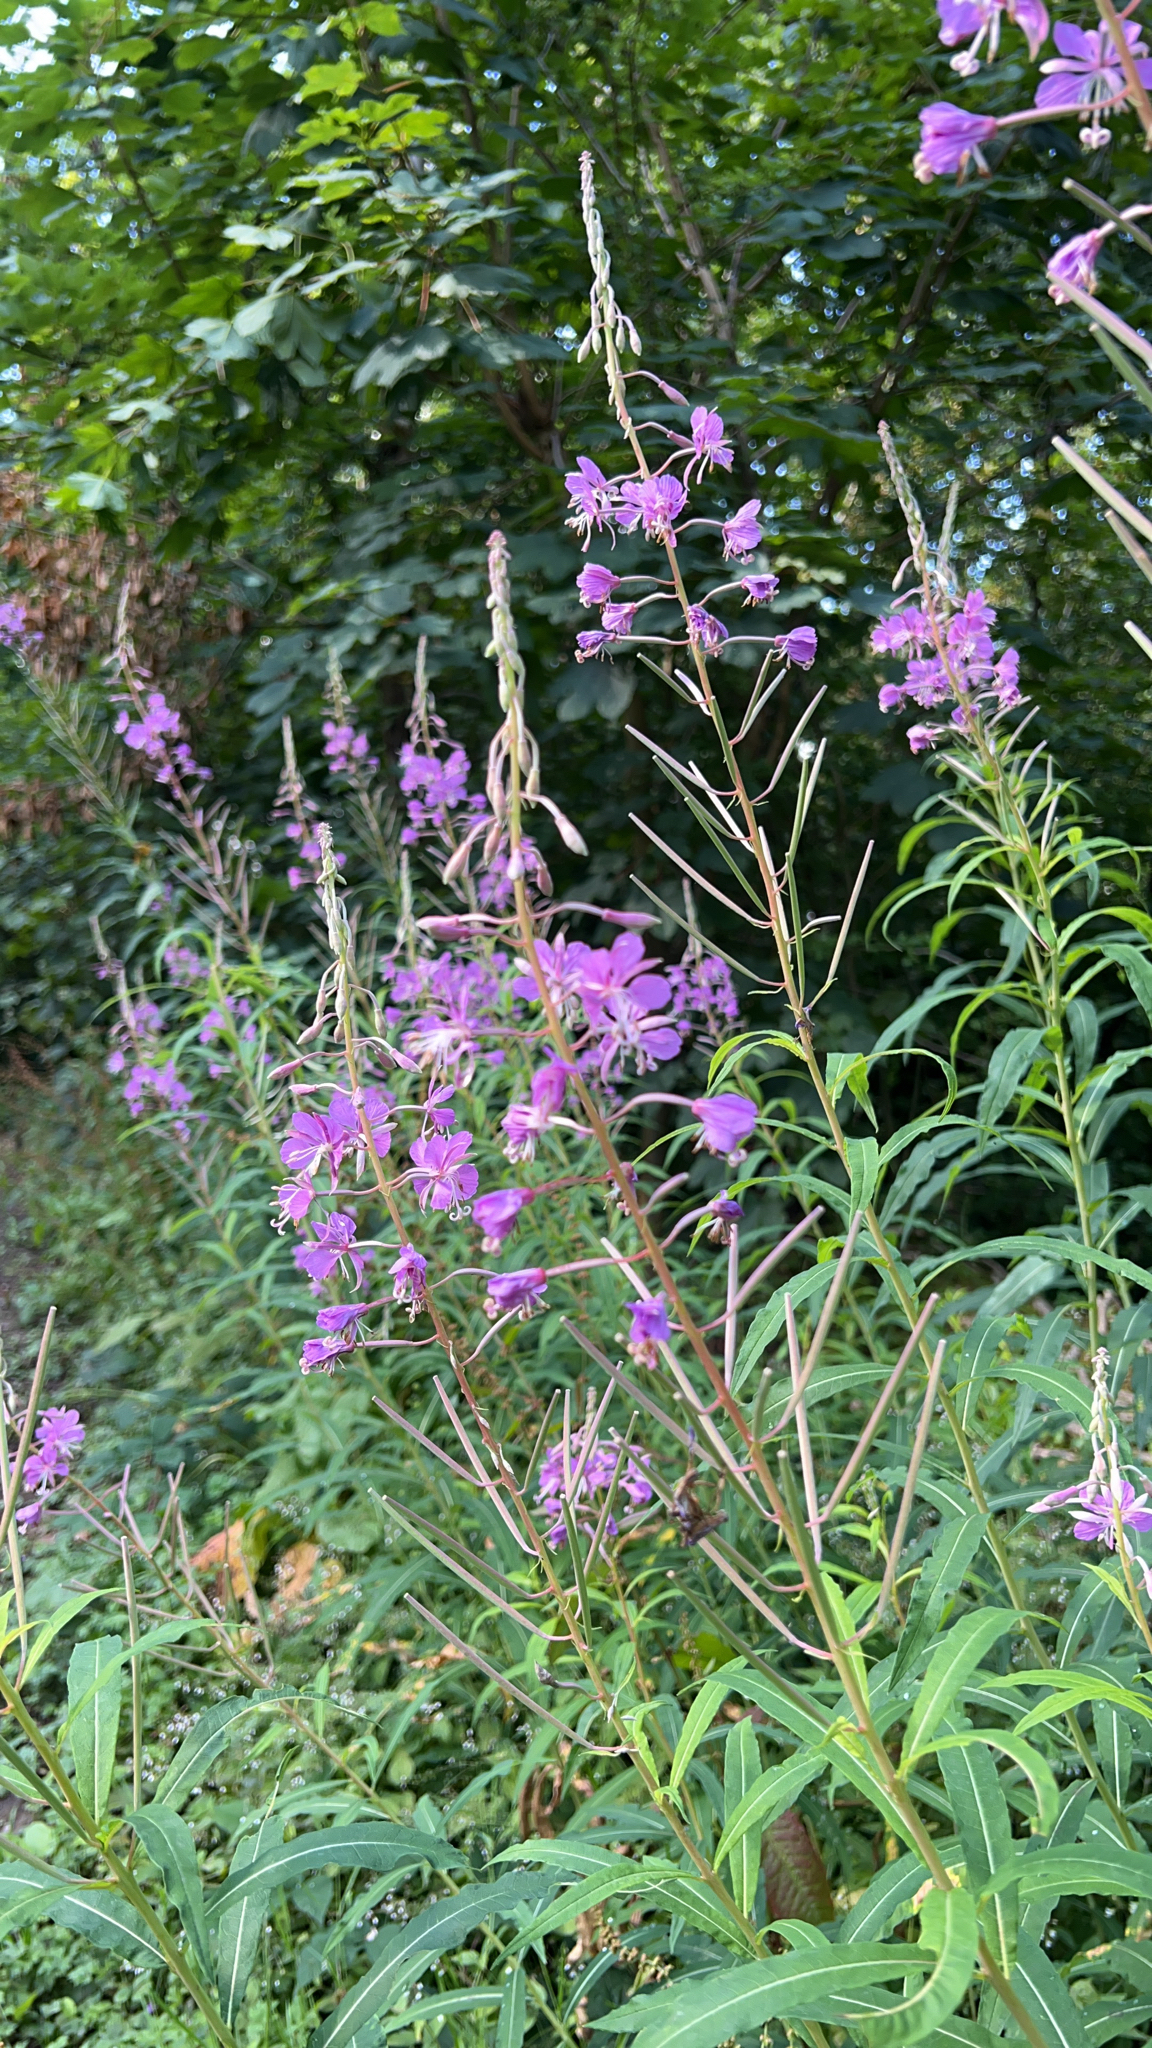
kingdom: Plantae
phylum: Tracheophyta
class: Magnoliopsida
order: Myrtales
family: Onagraceae
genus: Chamaenerion
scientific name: Chamaenerion angustifolium
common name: Fireweed
